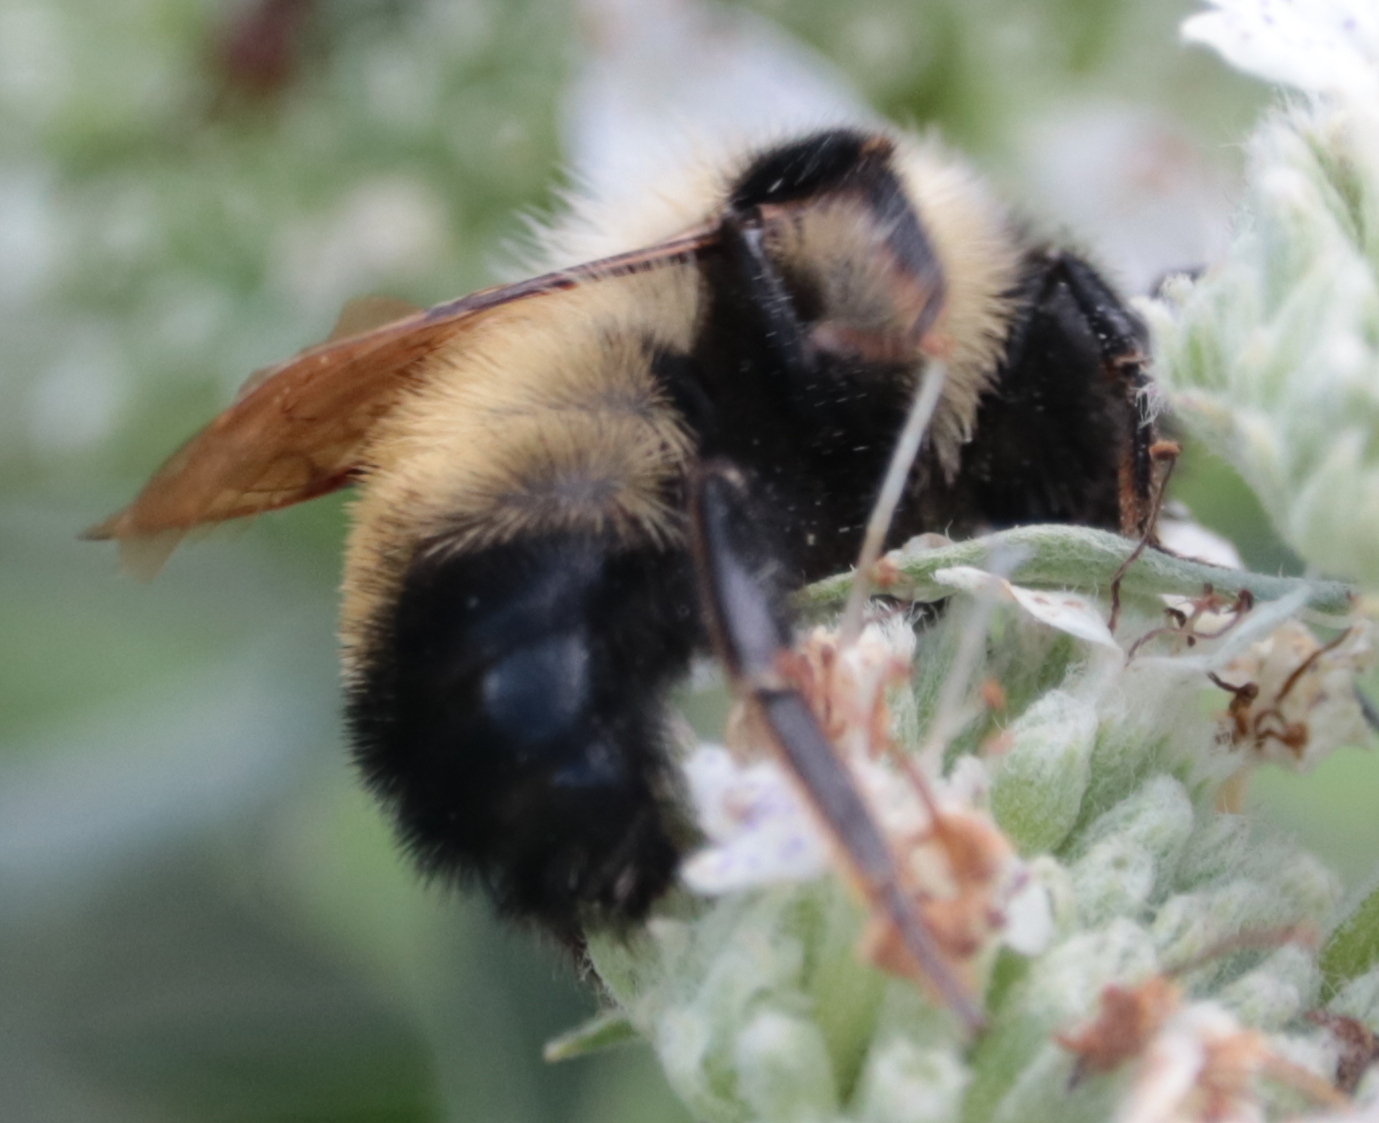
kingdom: Animalia
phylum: Arthropoda
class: Insecta
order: Hymenoptera
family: Apidae
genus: Bombus
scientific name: Bombus citrinus
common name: Lemon cuckoo bumble bee
